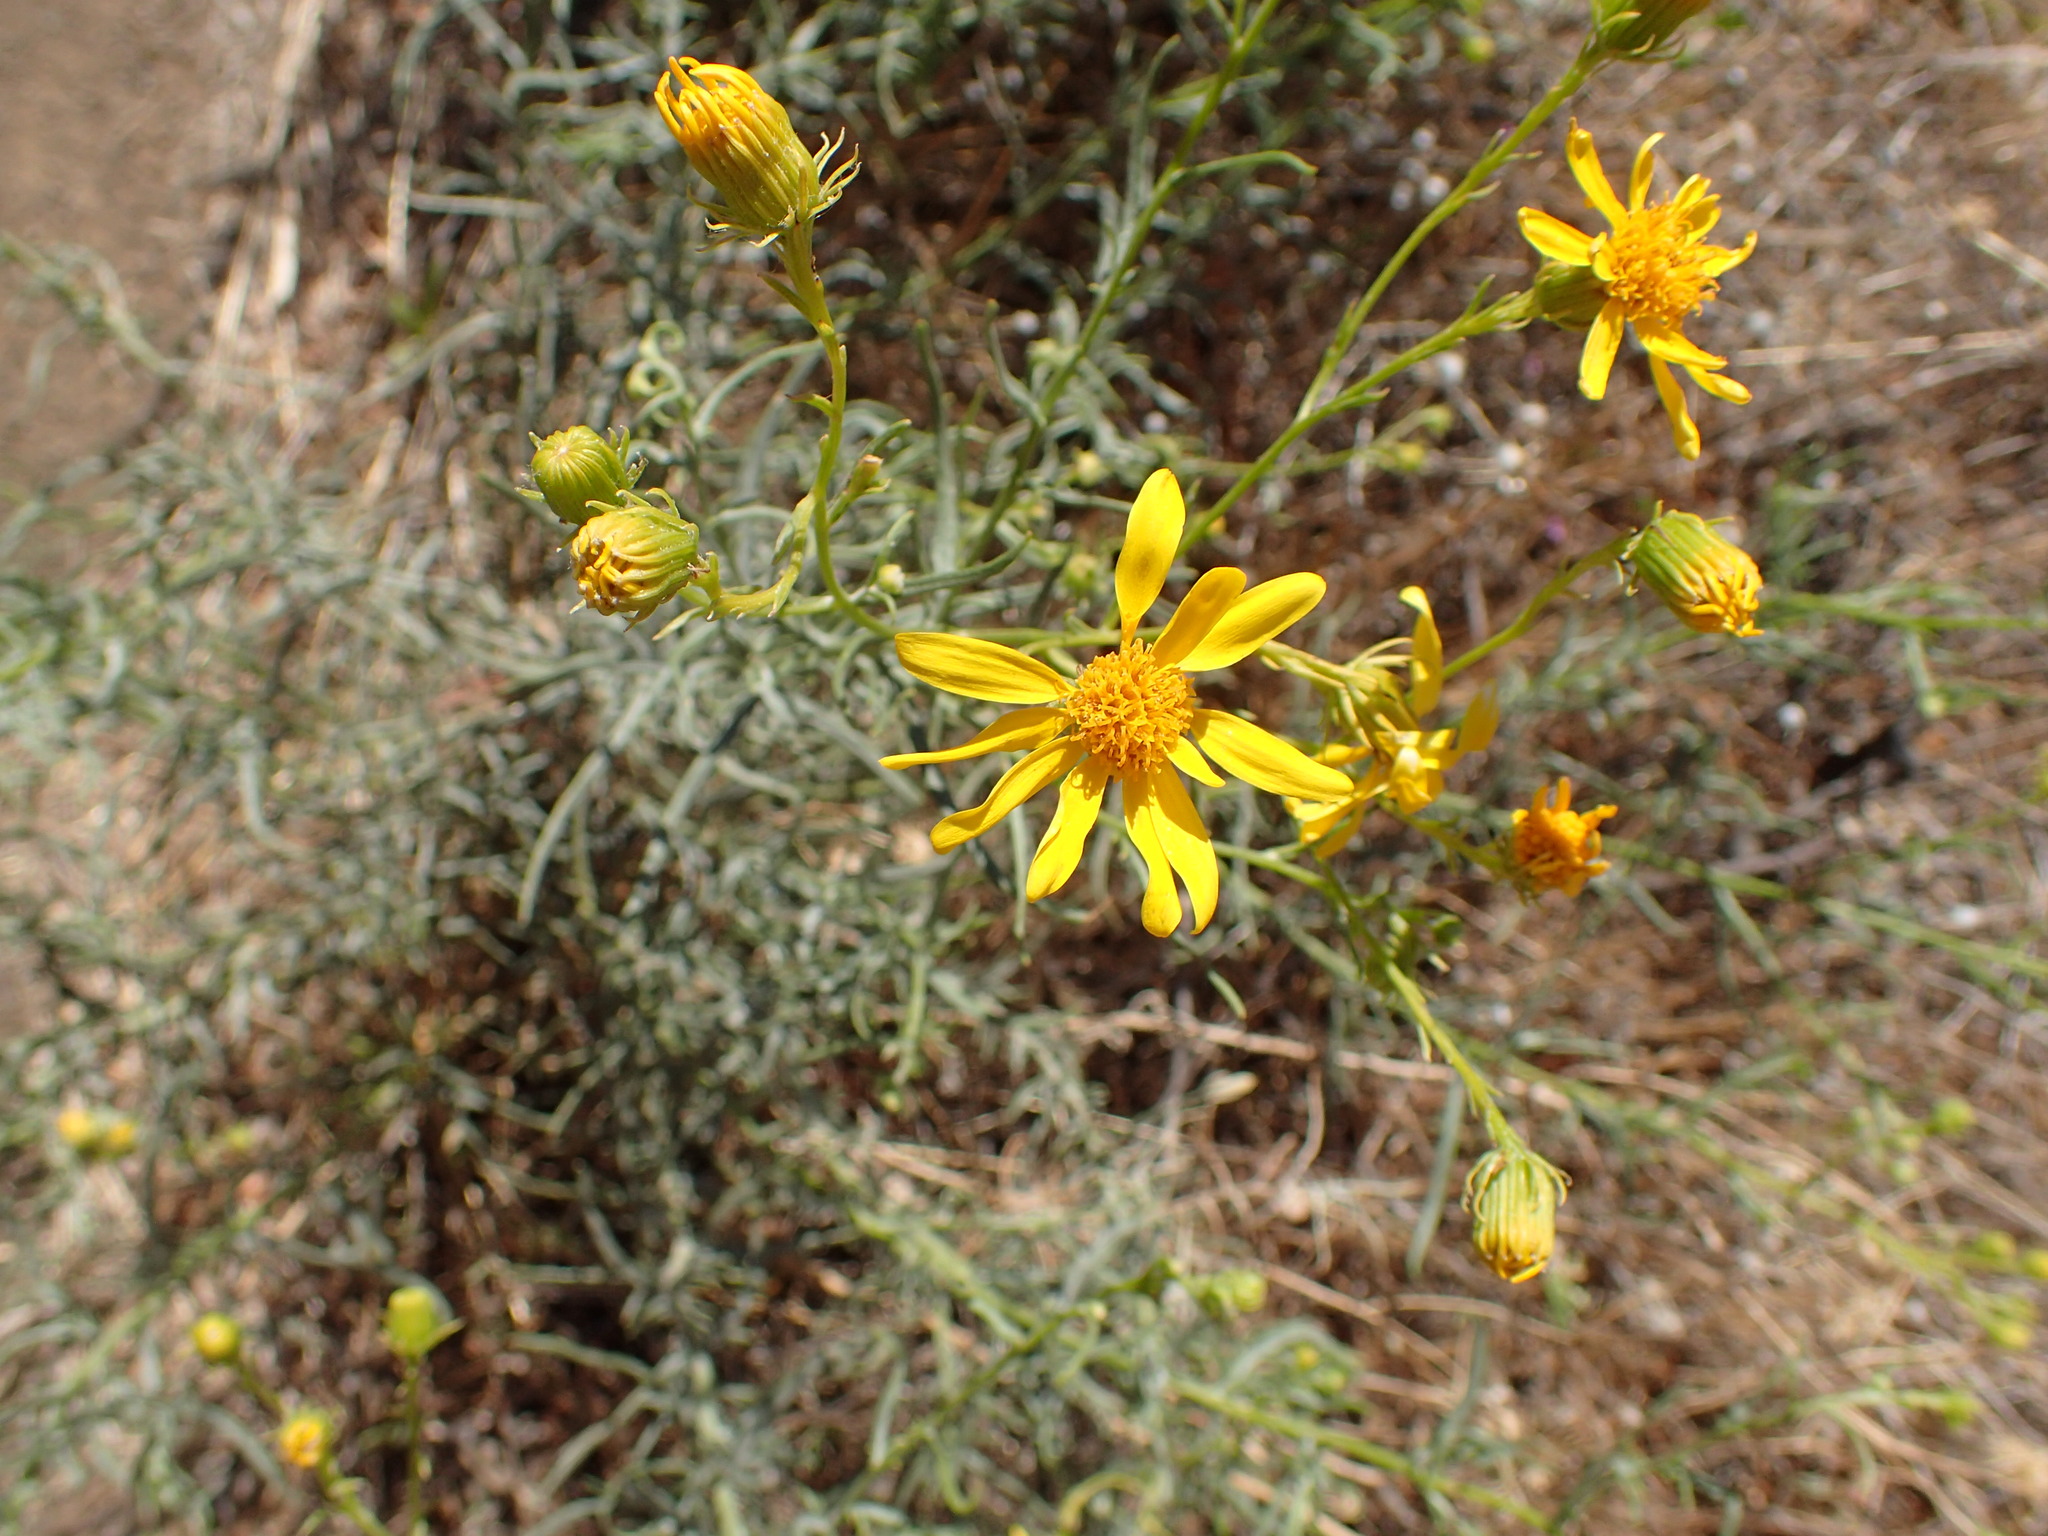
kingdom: Plantae
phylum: Tracheophyta
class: Magnoliopsida
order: Asterales
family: Asteraceae
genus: Senecio
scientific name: Senecio flaccidus
